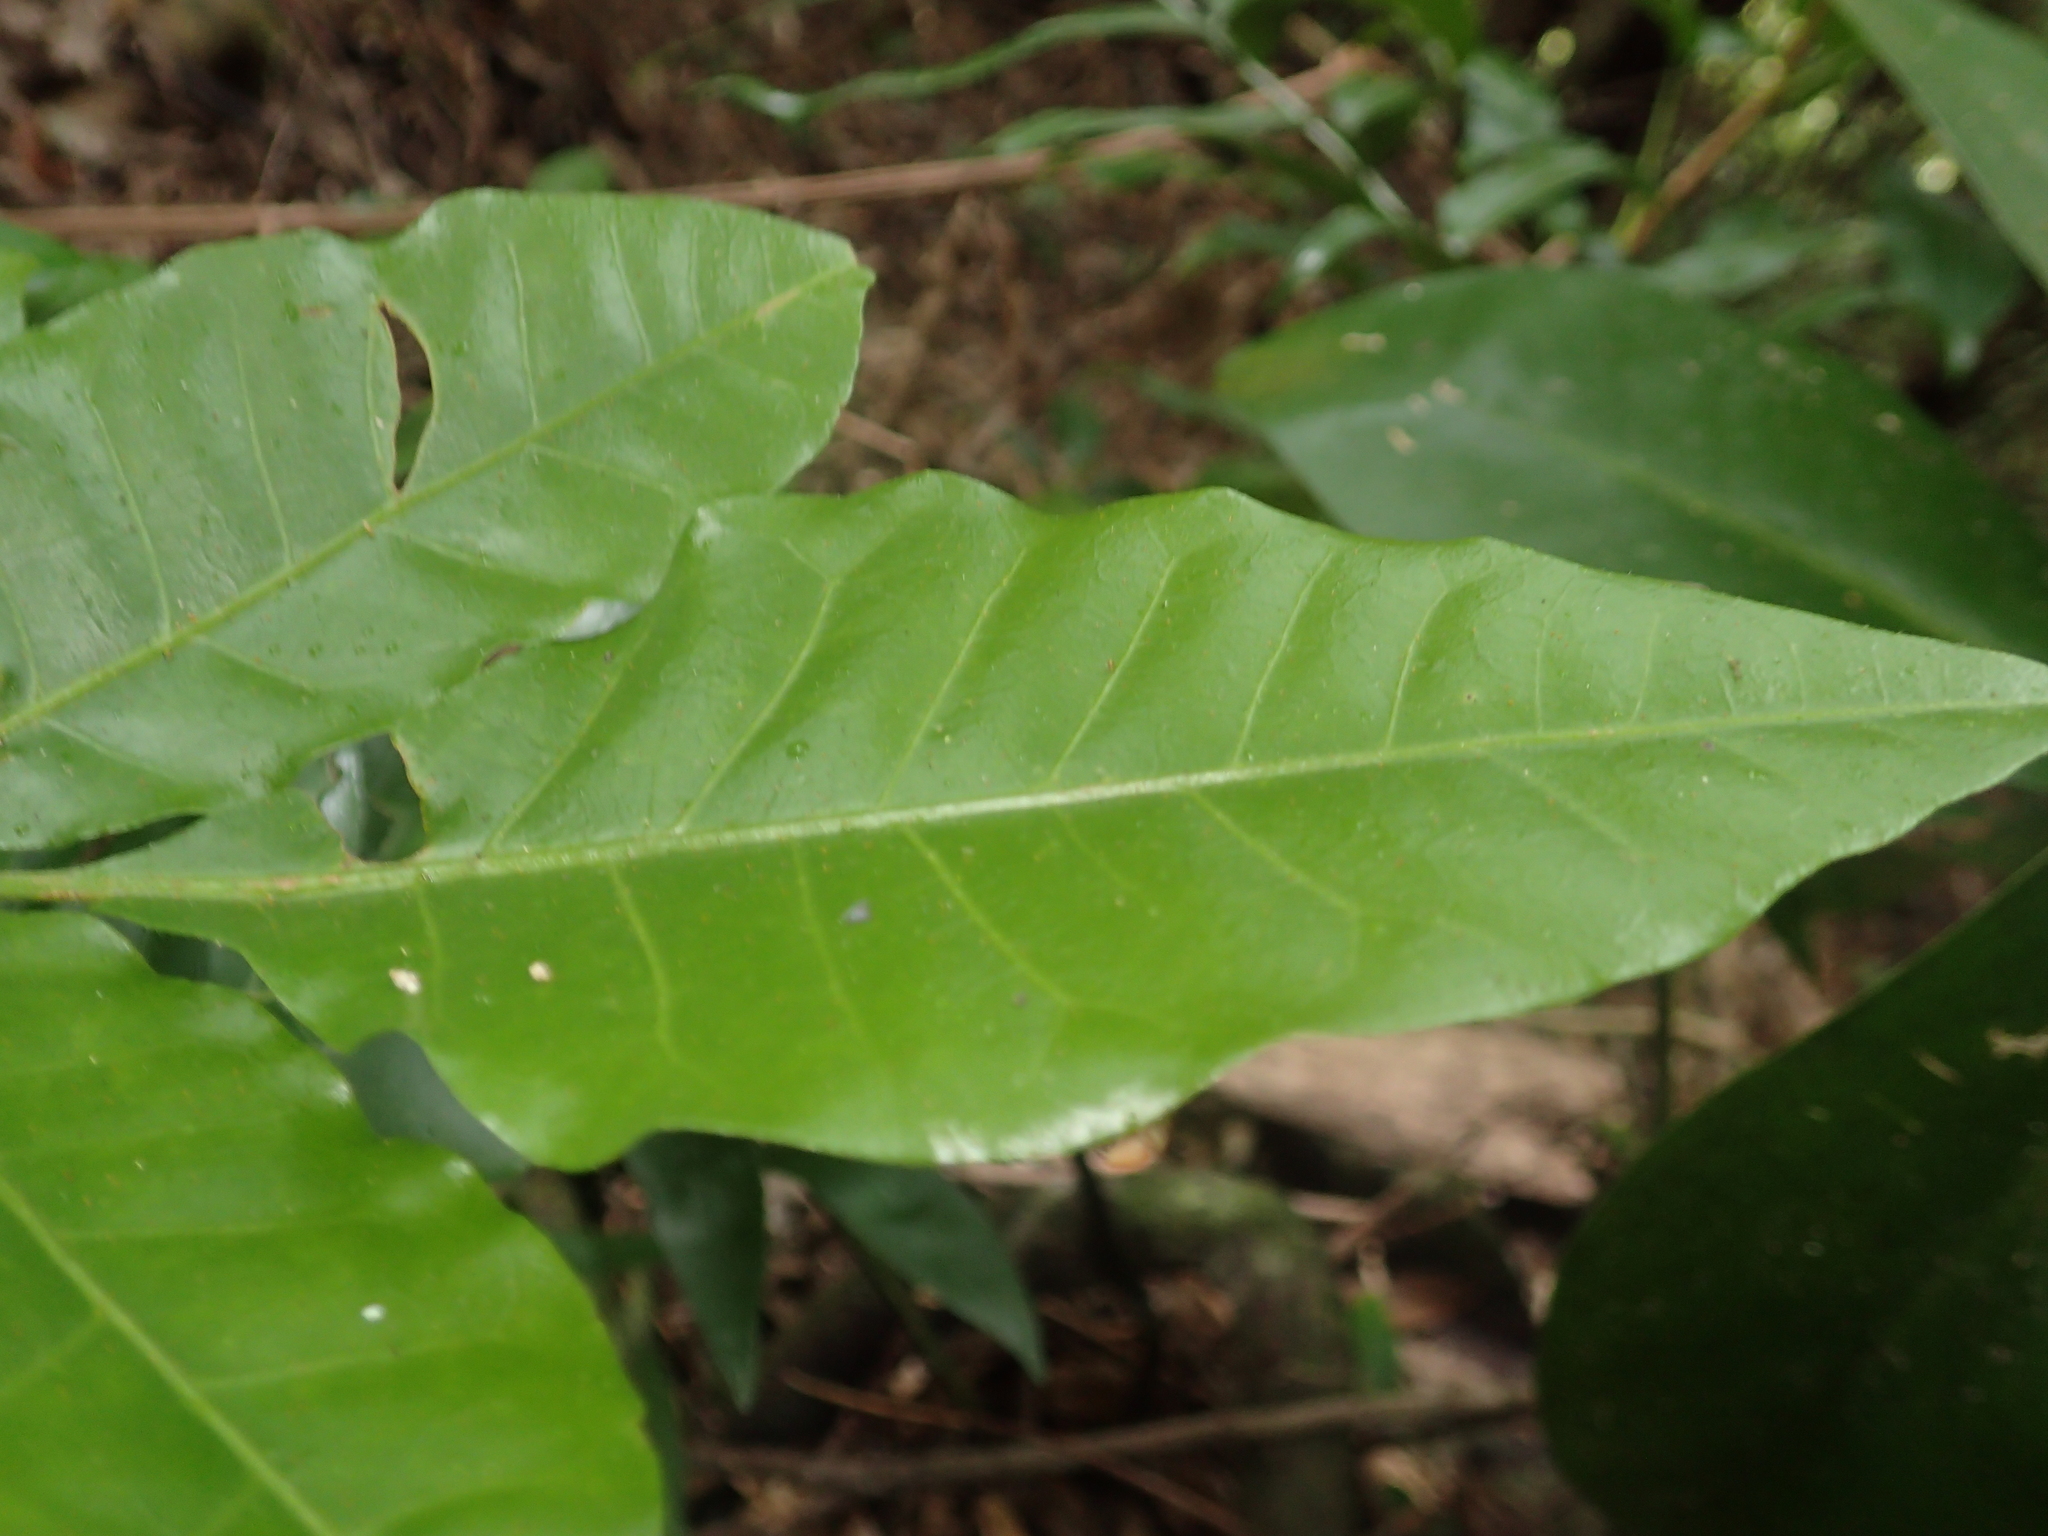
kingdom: Plantae
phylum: Tracheophyta
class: Magnoliopsida
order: Sapindales
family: Meliaceae
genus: Didymocheton
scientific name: Didymocheton spectabilis
